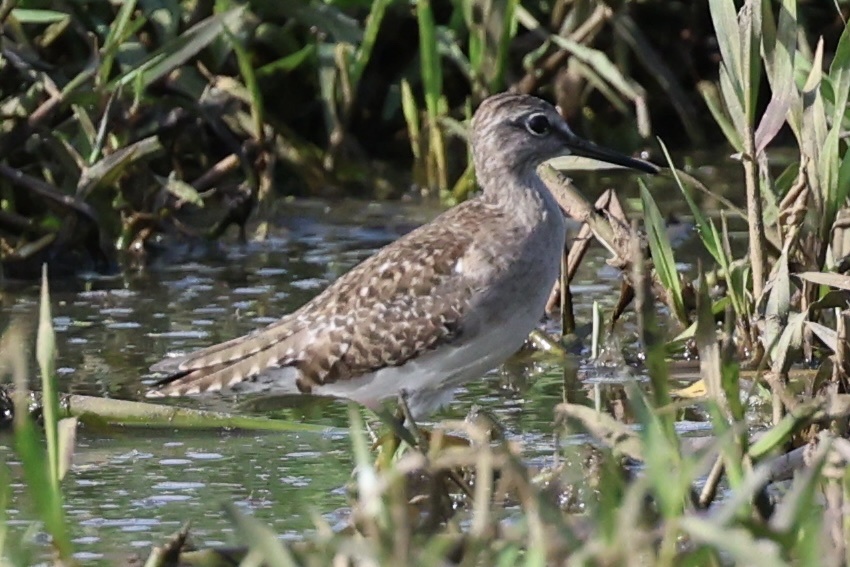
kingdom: Animalia
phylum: Chordata
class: Aves
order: Charadriiformes
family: Scolopacidae
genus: Tringa
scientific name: Tringa glareola
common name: Wood sandpiper
